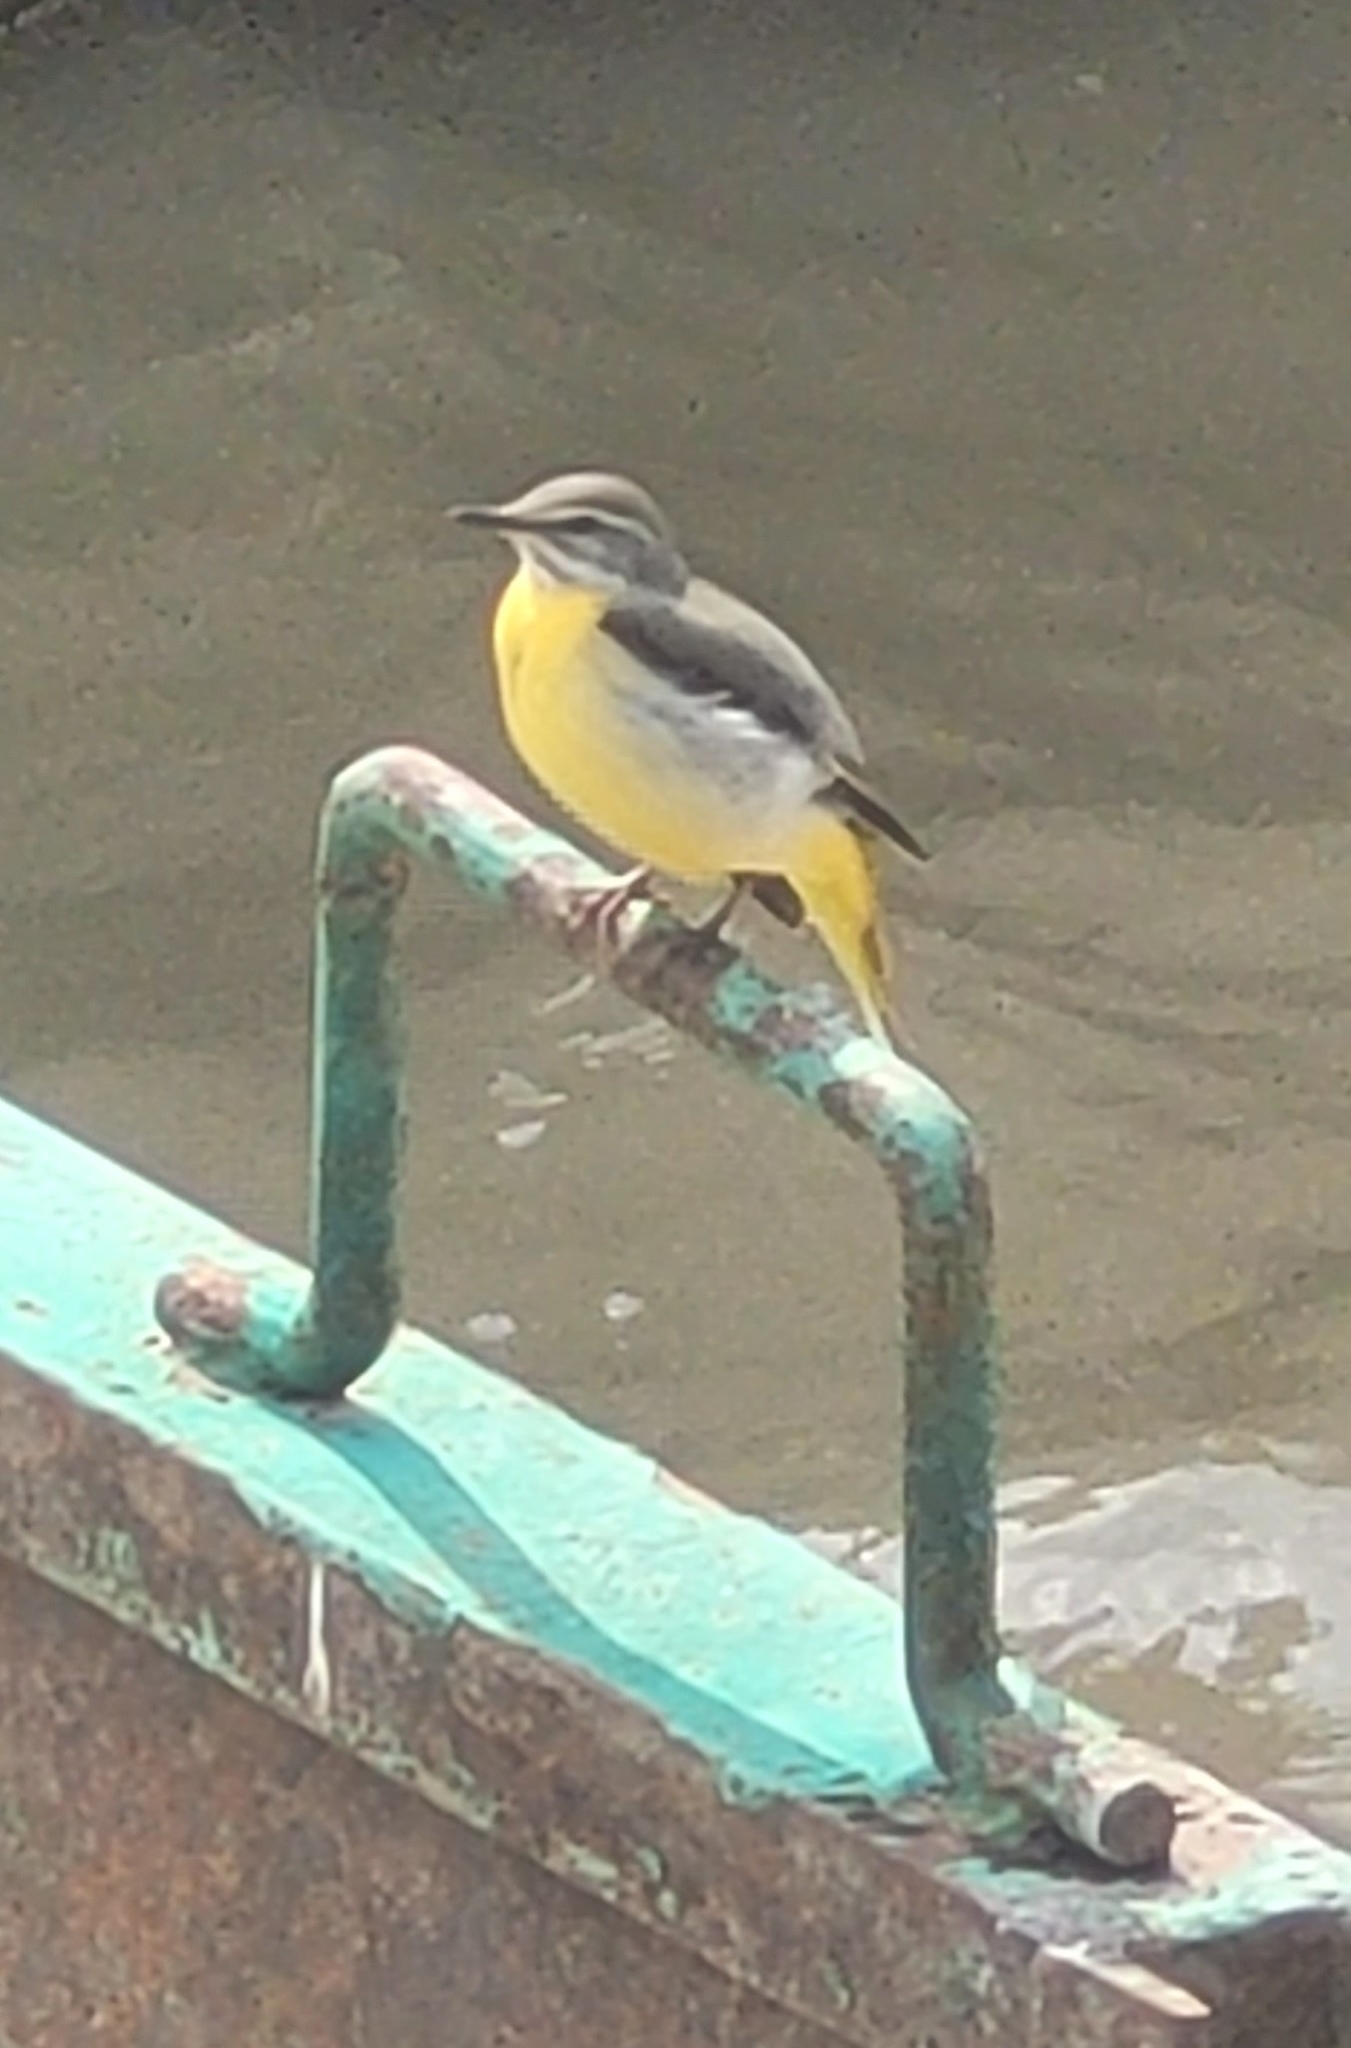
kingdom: Animalia
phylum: Chordata
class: Aves
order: Passeriformes
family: Motacillidae
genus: Motacilla
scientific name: Motacilla cinerea
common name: Grey wagtail
